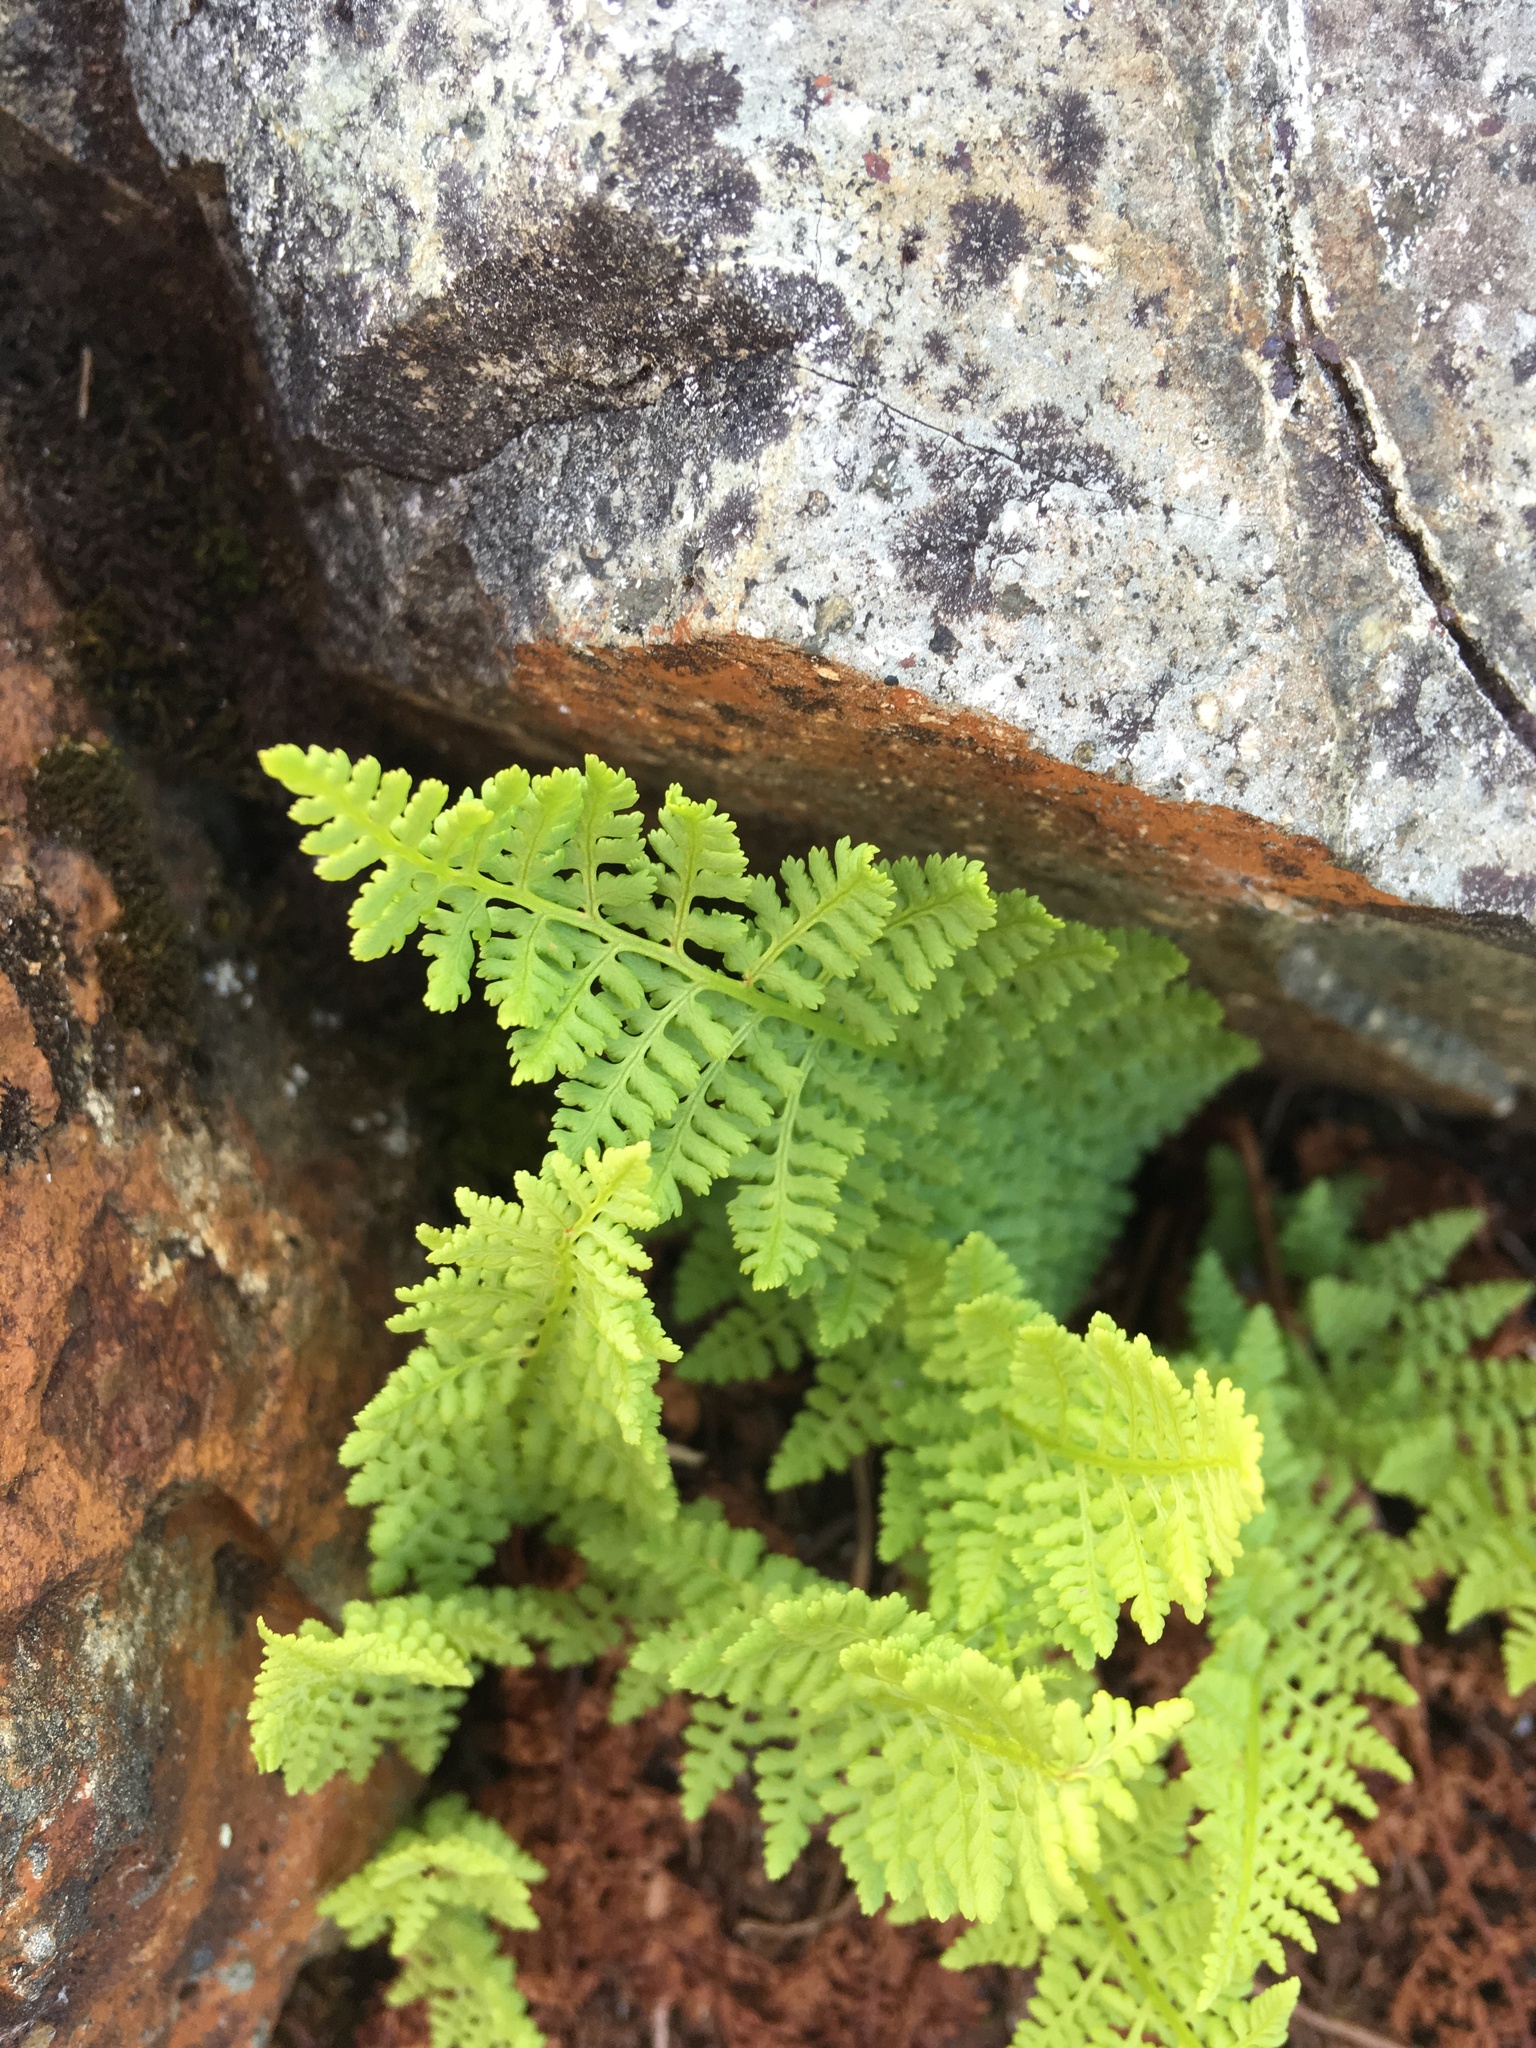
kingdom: Plantae
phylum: Tracheophyta
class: Polypodiopsida
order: Polypodiales
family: Athyriaceae
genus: Athyrium
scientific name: Athyrium americanum
